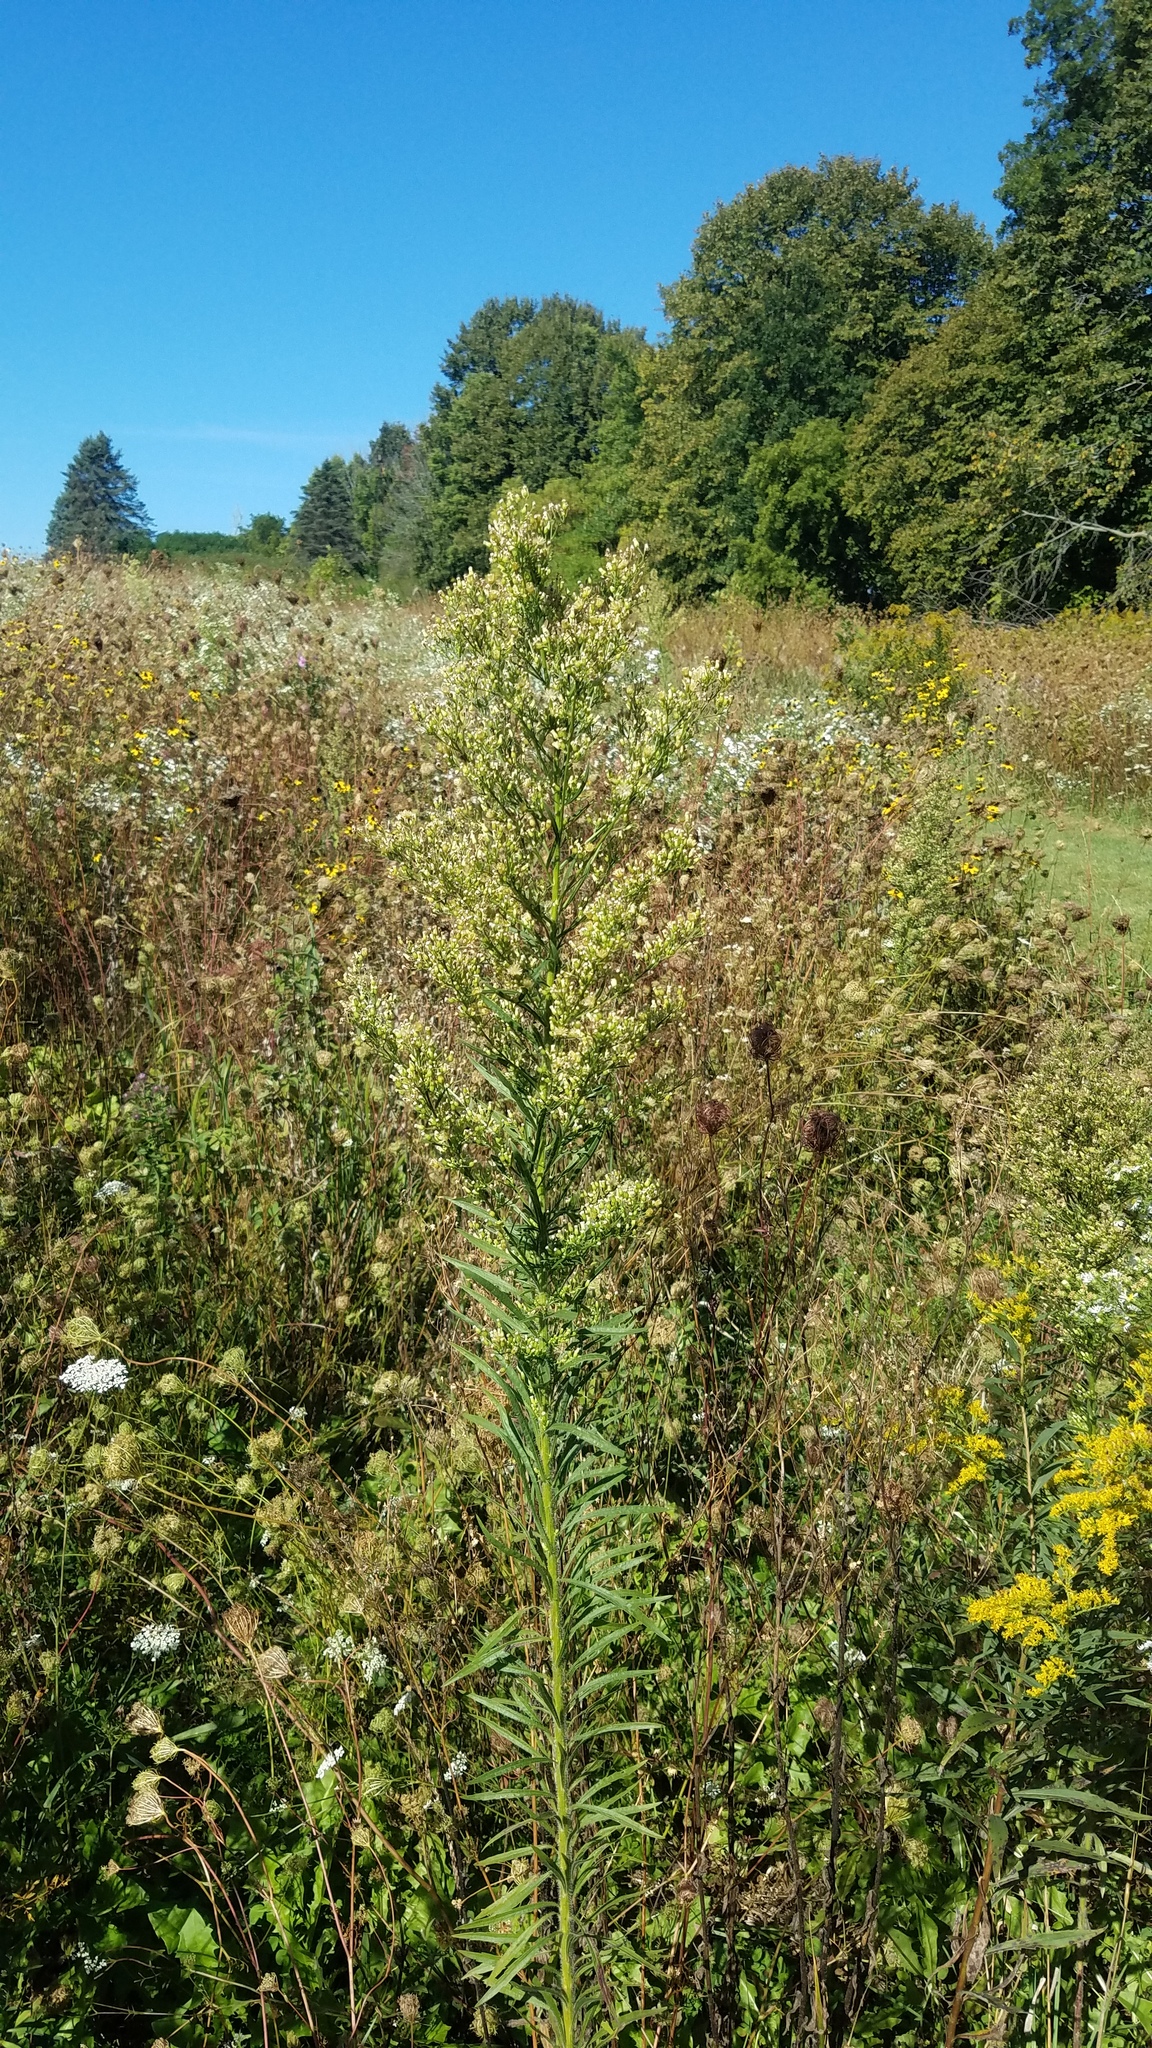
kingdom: Plantae
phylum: Tracheophyta
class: Magnoliopsida
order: Asterales
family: Asteraceae
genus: Erigeron
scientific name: Erigeron canadensis
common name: Canadian fleabane
